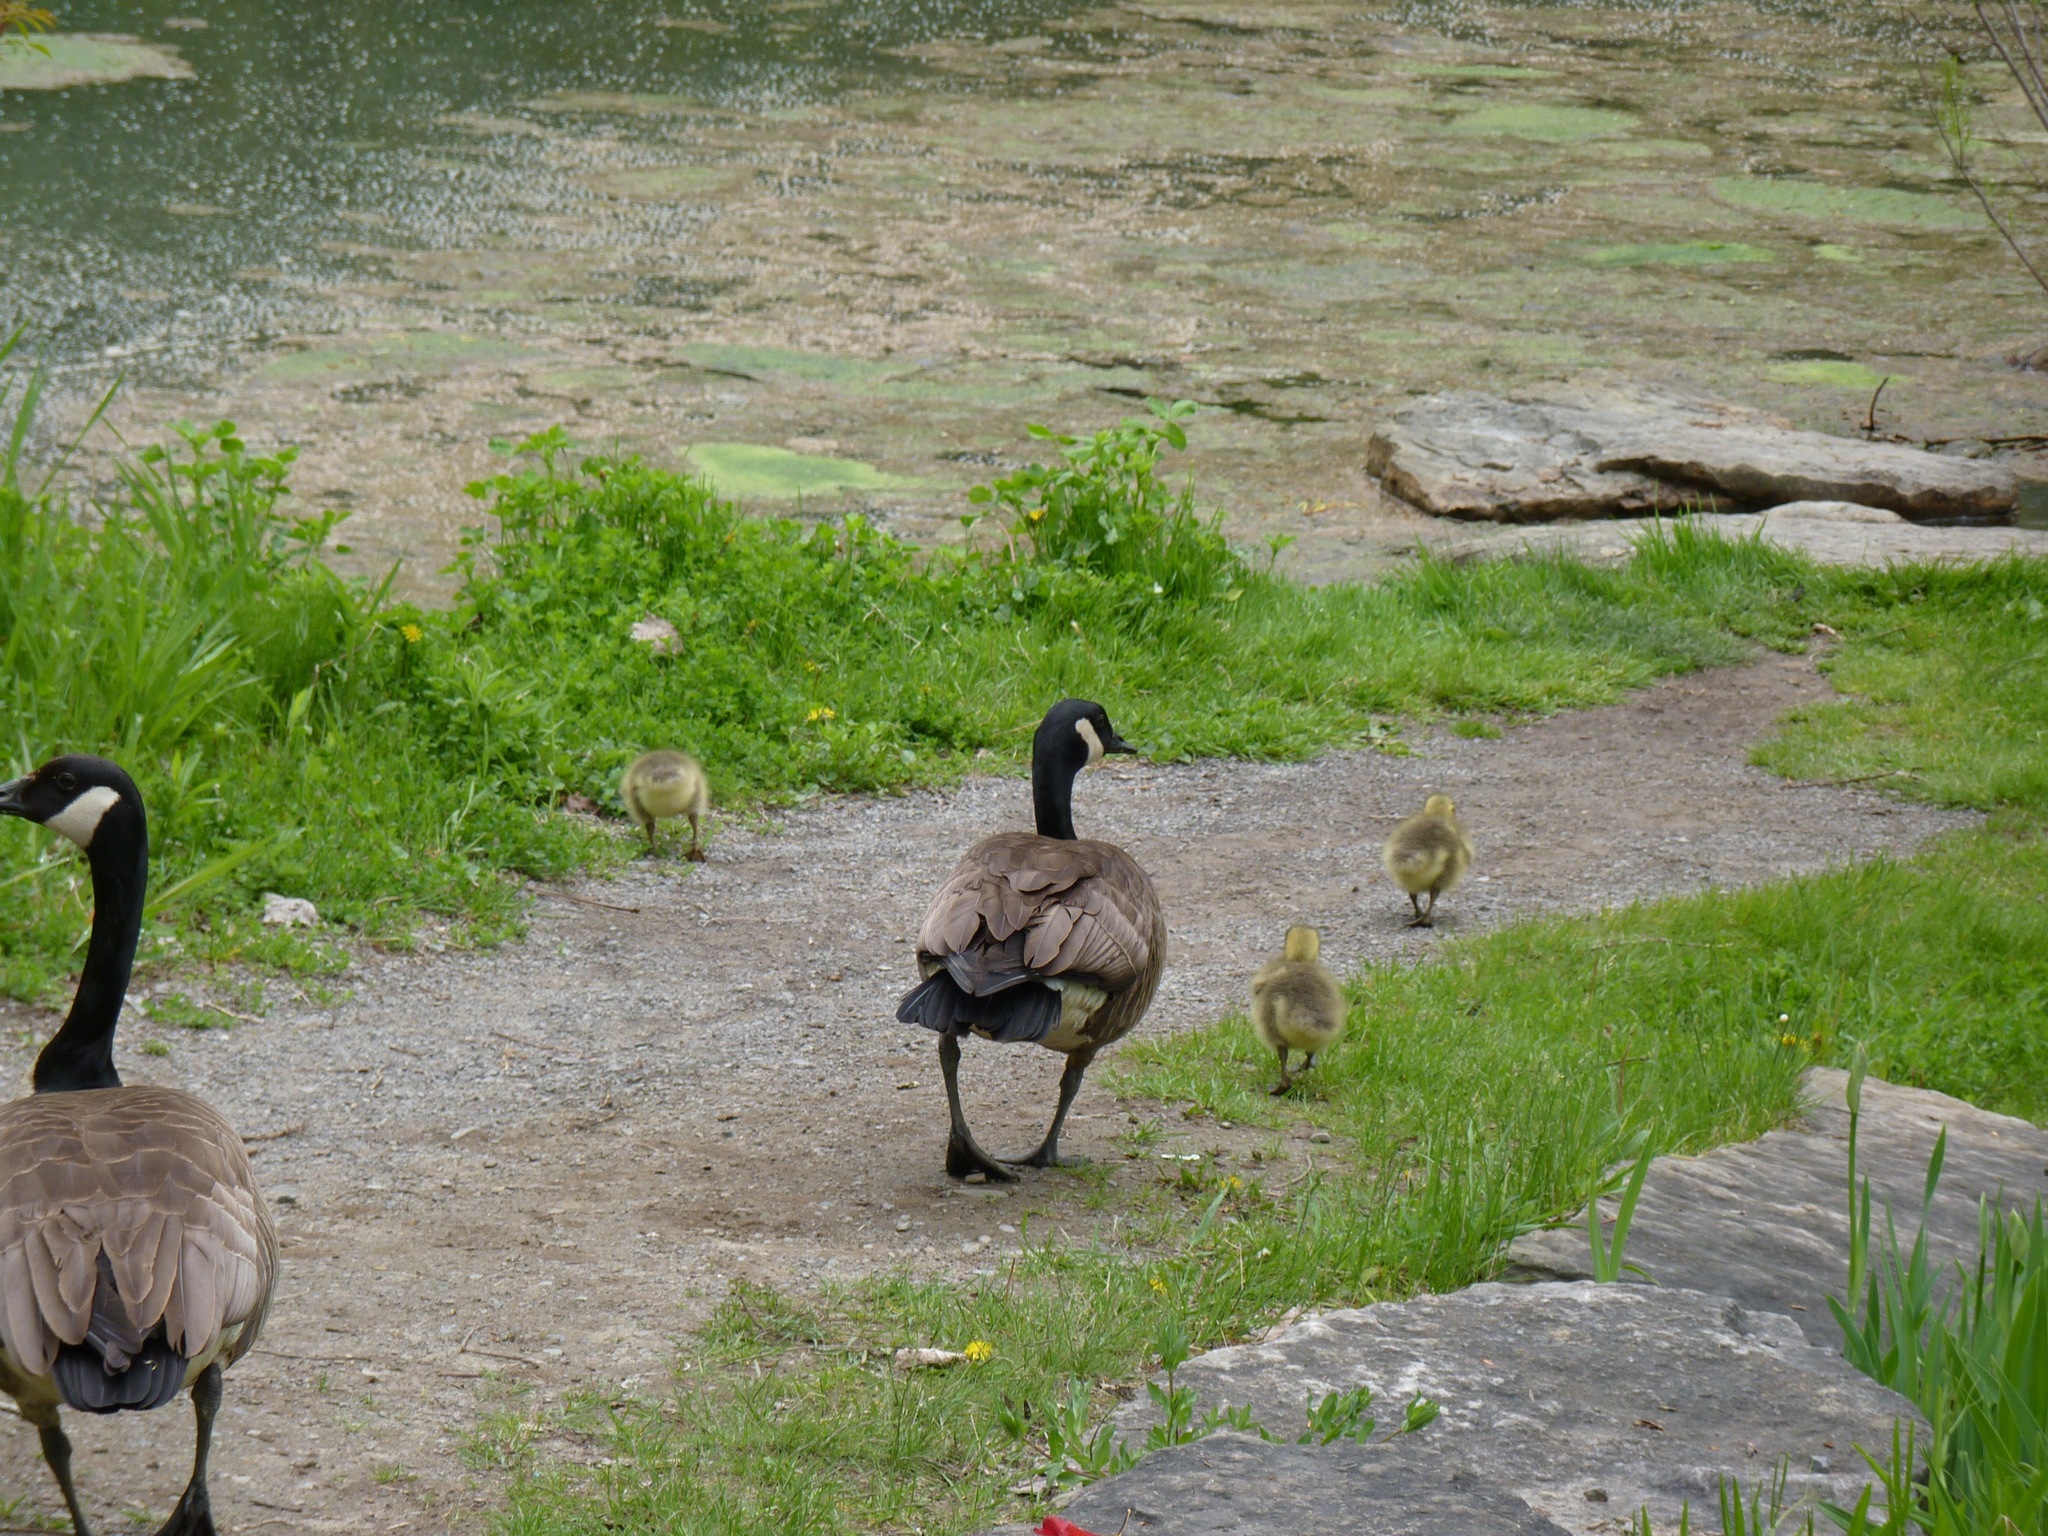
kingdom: Animalia
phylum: Chordata
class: Aves
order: Anseriformes
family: Anatidae
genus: Branta
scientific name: Branta canadensis
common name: Canada goose
